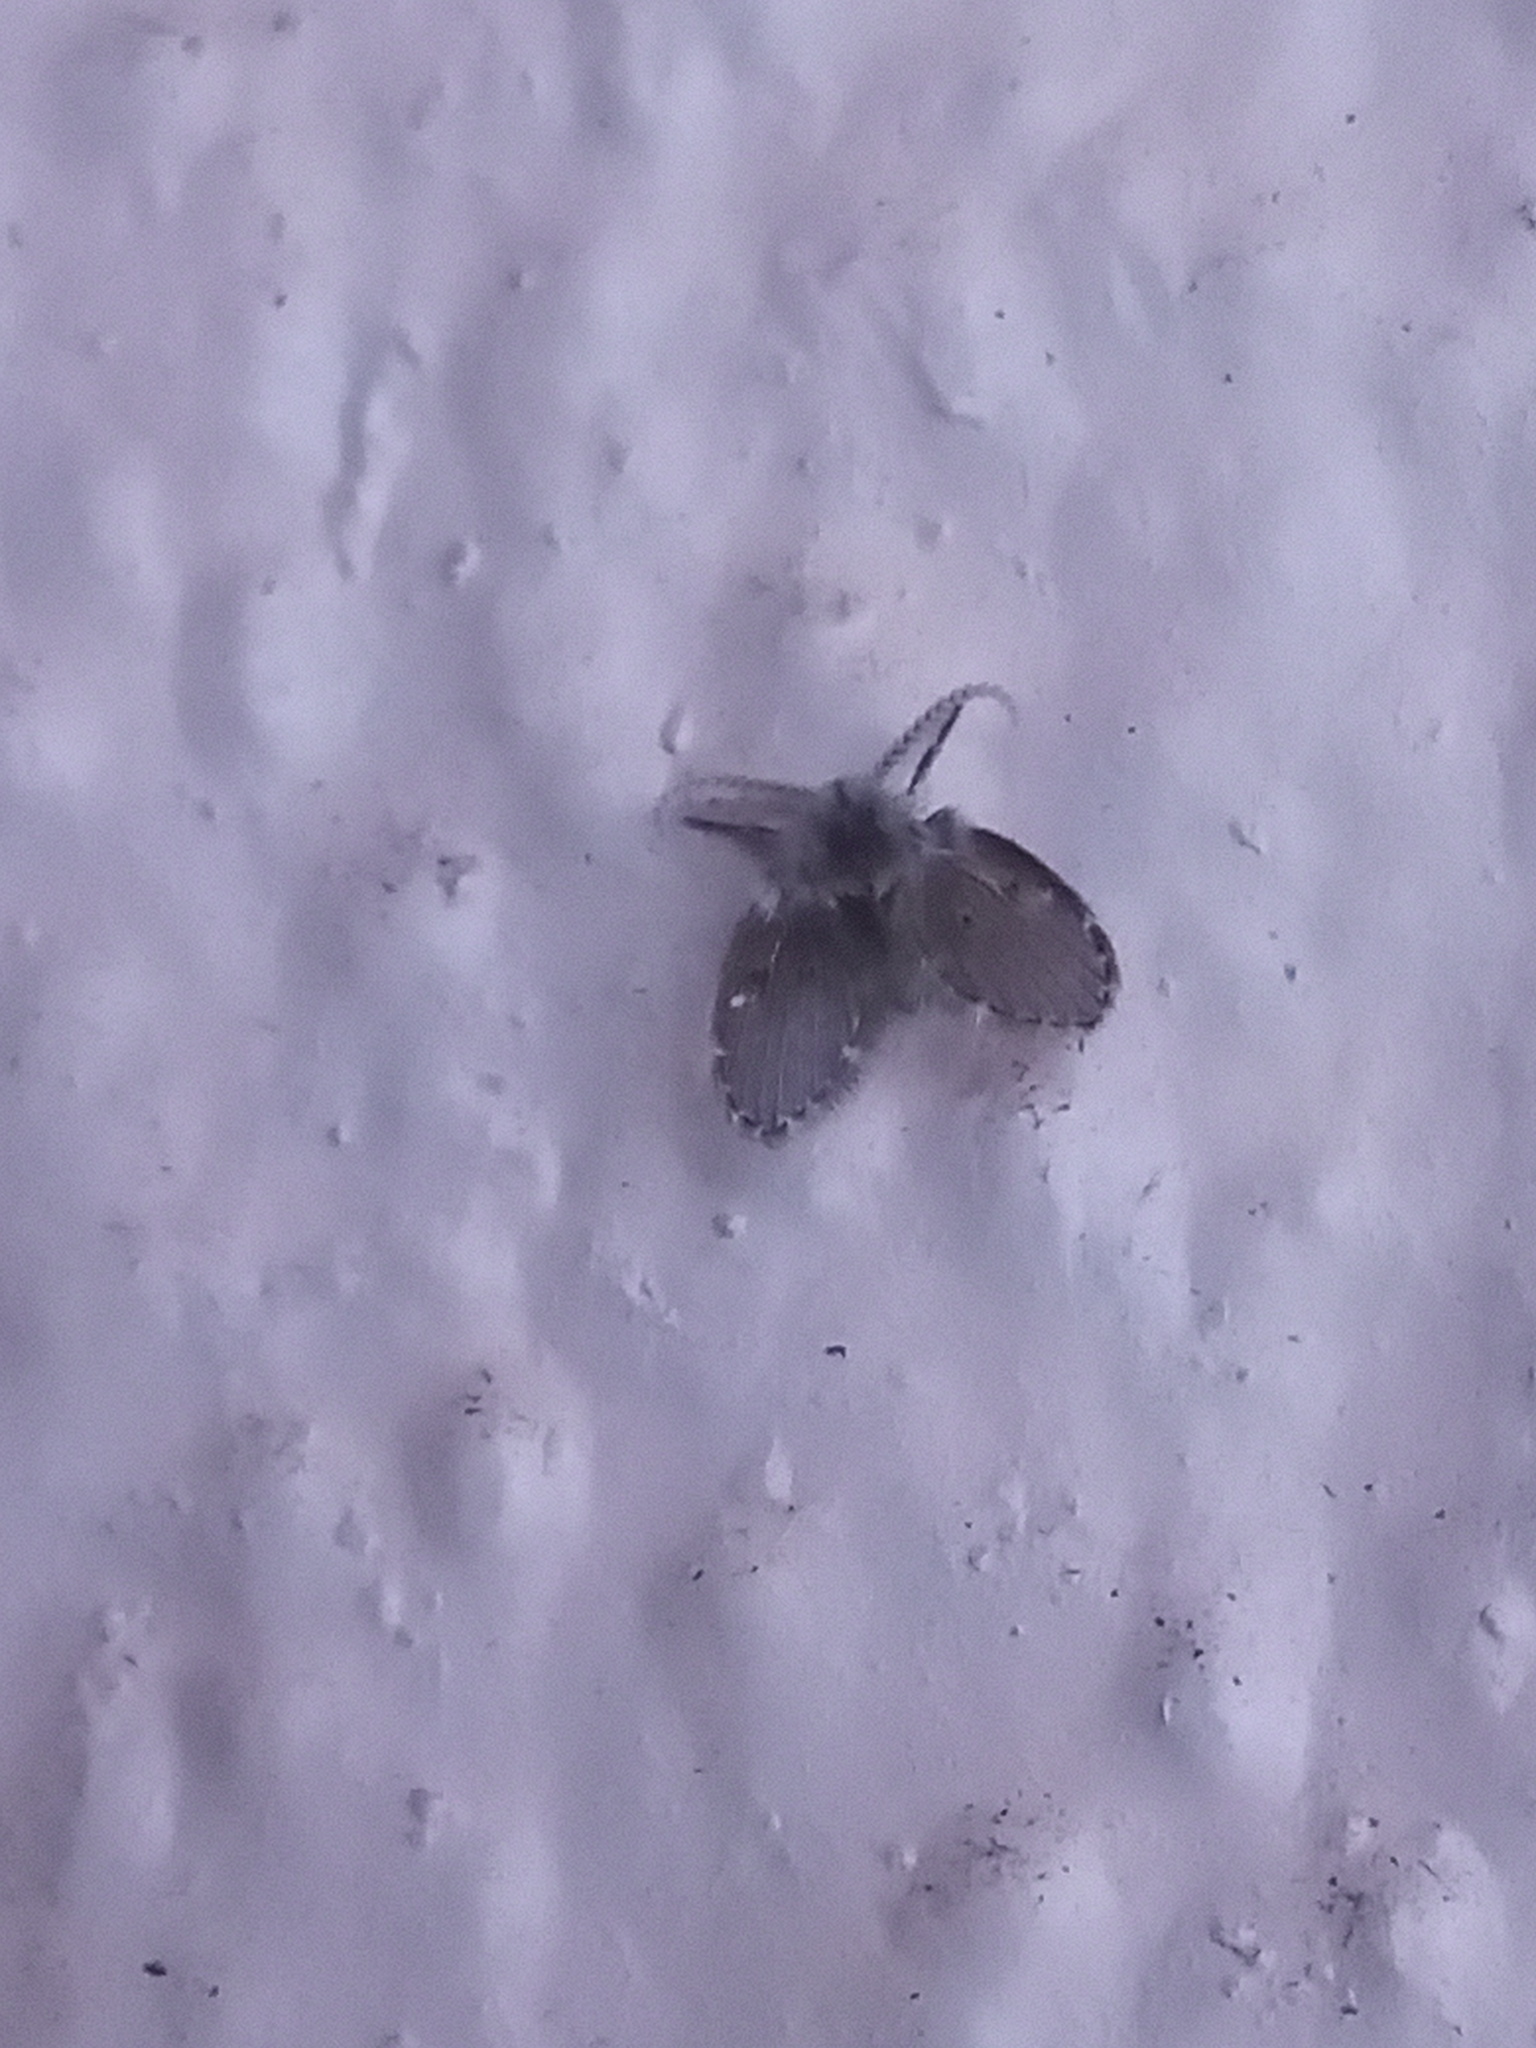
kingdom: Animalia
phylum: Arthropoda
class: Insecta
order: Diptera
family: Psychodidae
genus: Clogmia
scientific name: Clogmia albipunctatus
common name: White-spotted moth fly
